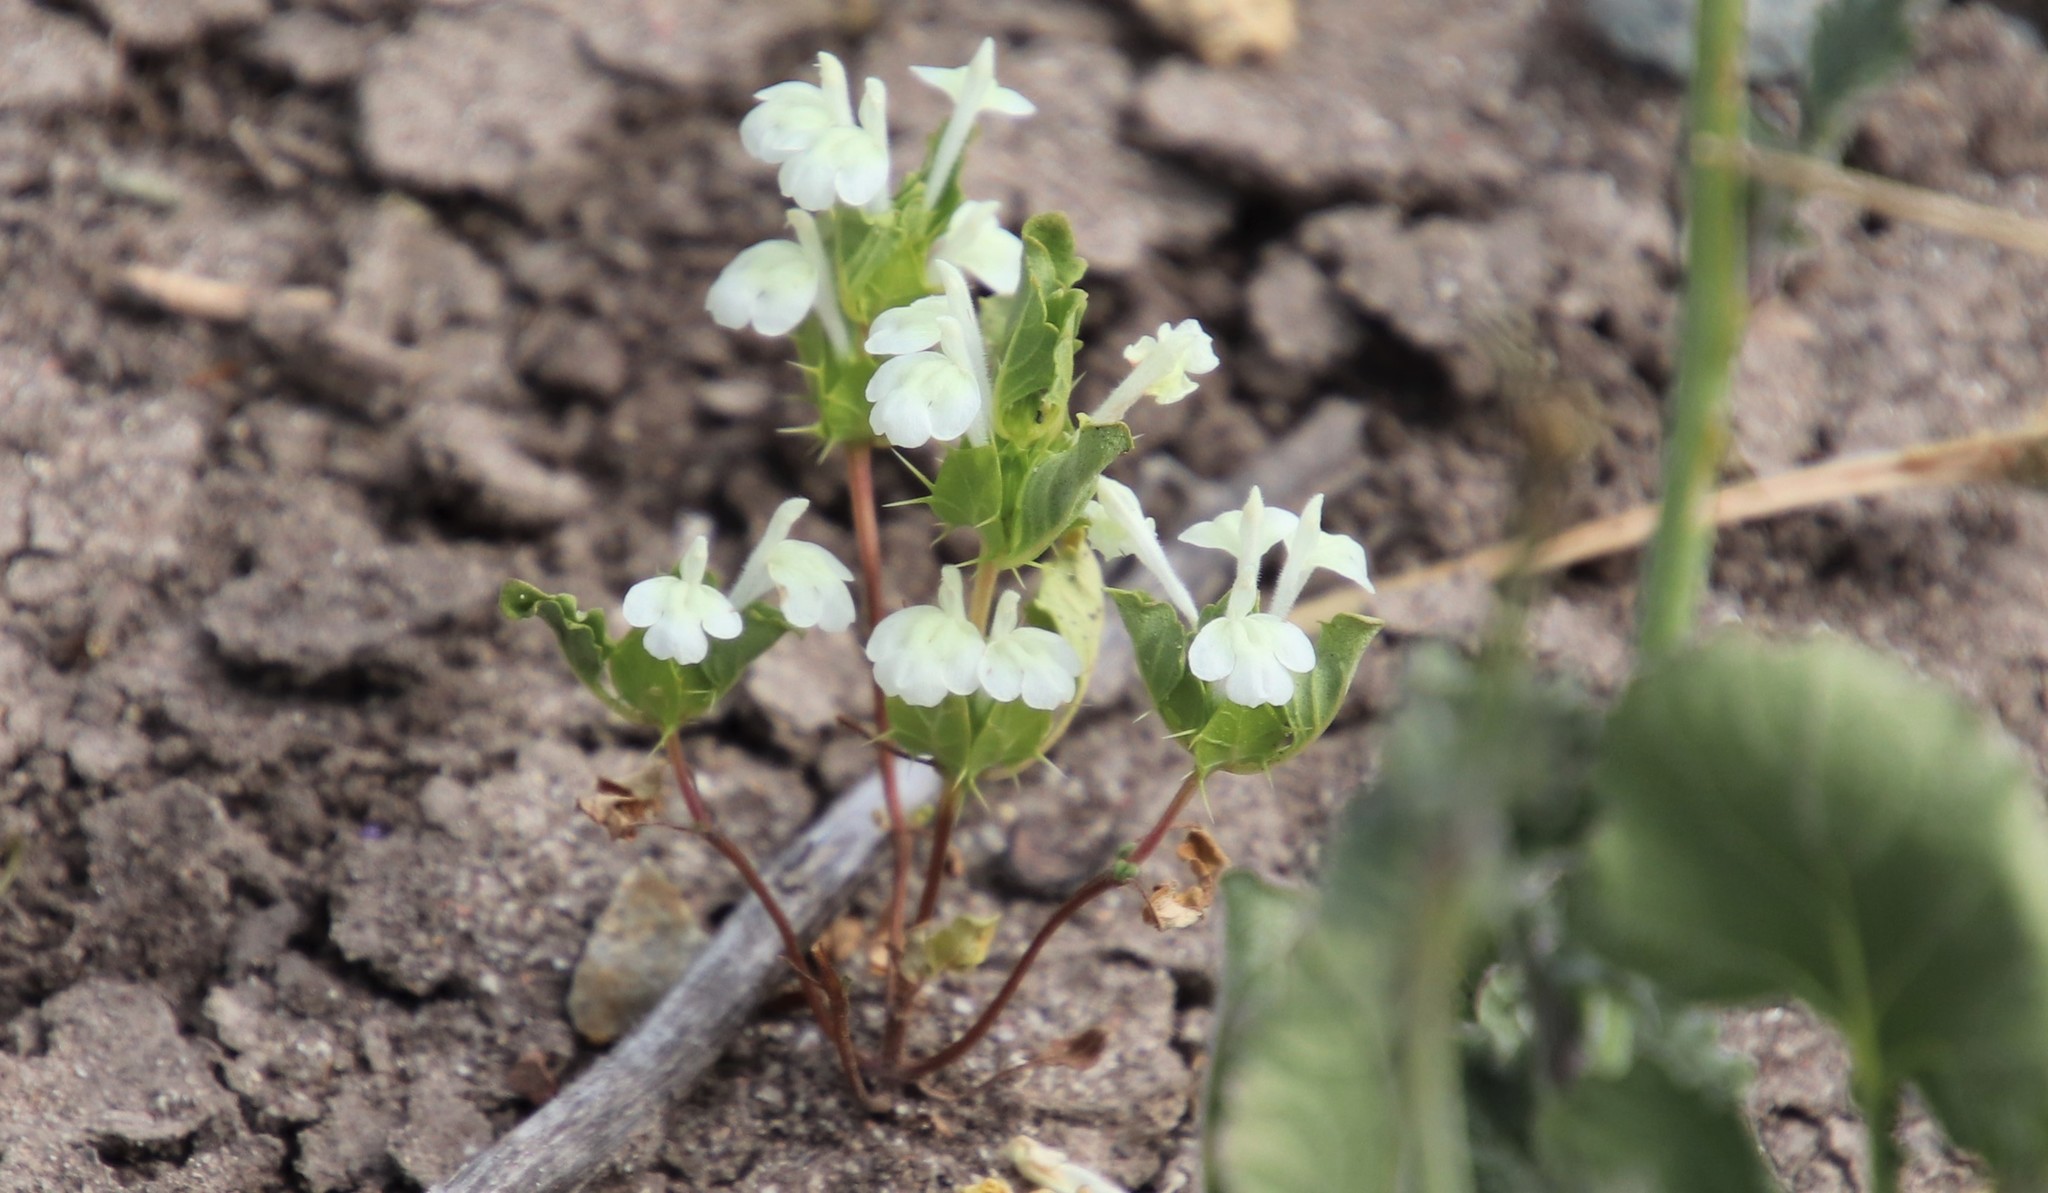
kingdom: Plantae
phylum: Tracheophyta
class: Magnoliopsida
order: Lamiales
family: Lamiaceae
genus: Acanthomintha
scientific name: Acanthomintha ilicifolia
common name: San diego thorn-mint
